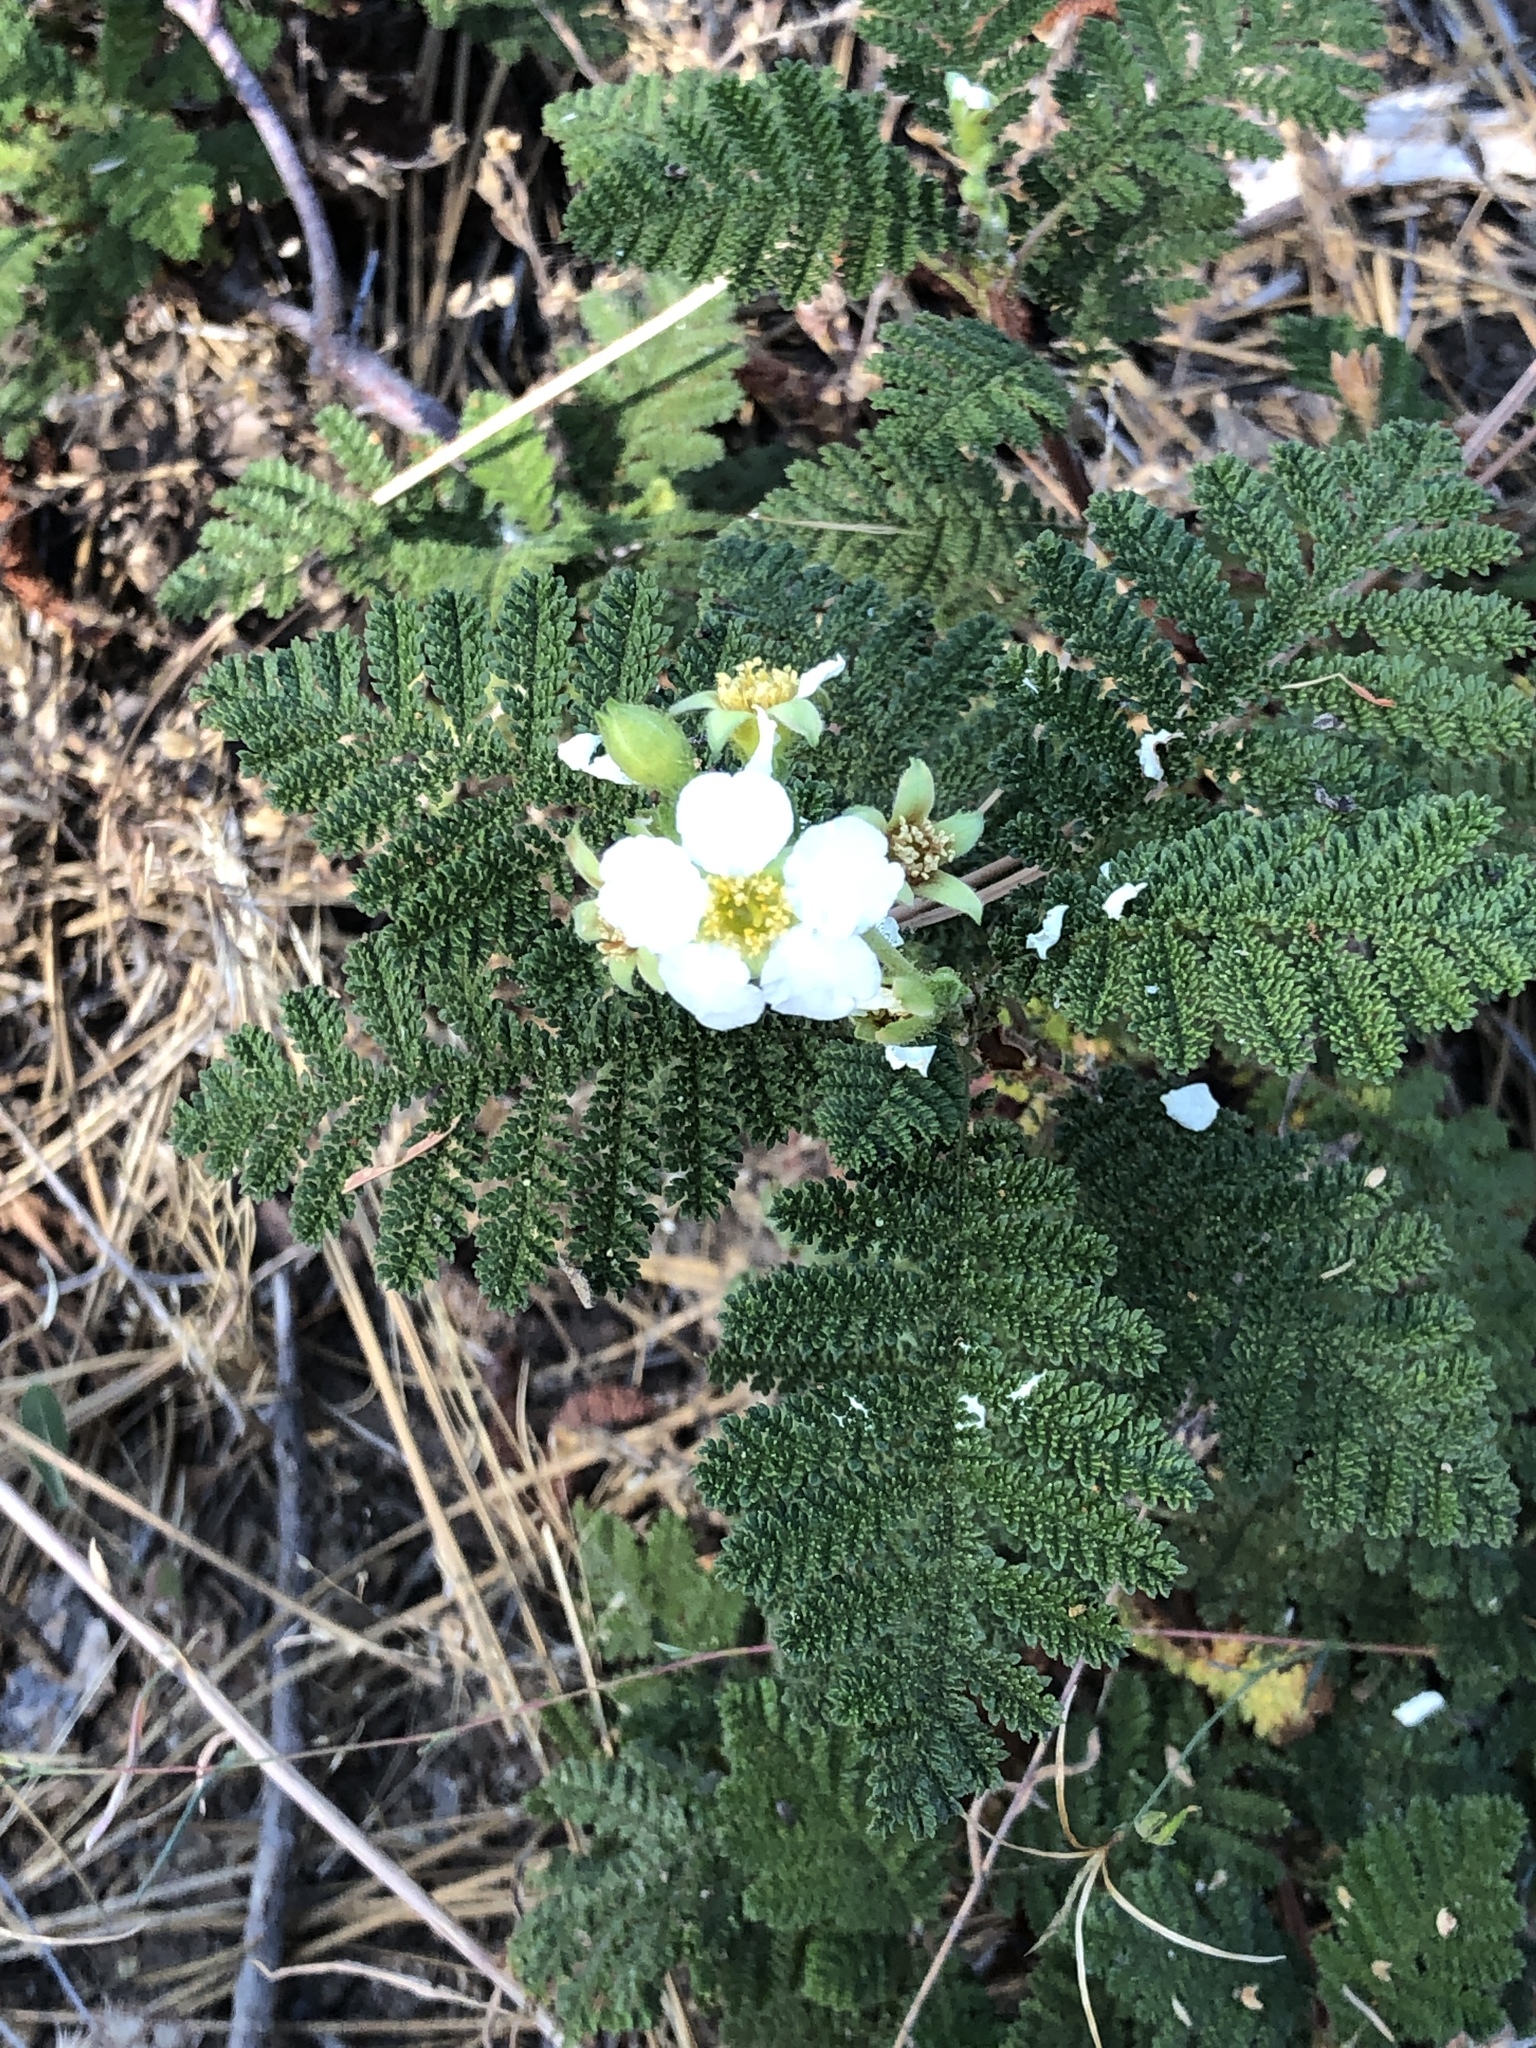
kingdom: Plantae
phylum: Tracheophyta
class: Magnoliopsida
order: Rosales
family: Rosaceae
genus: Chamaebatia
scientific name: Chamaebatia foliolosa
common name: Mountain misery
